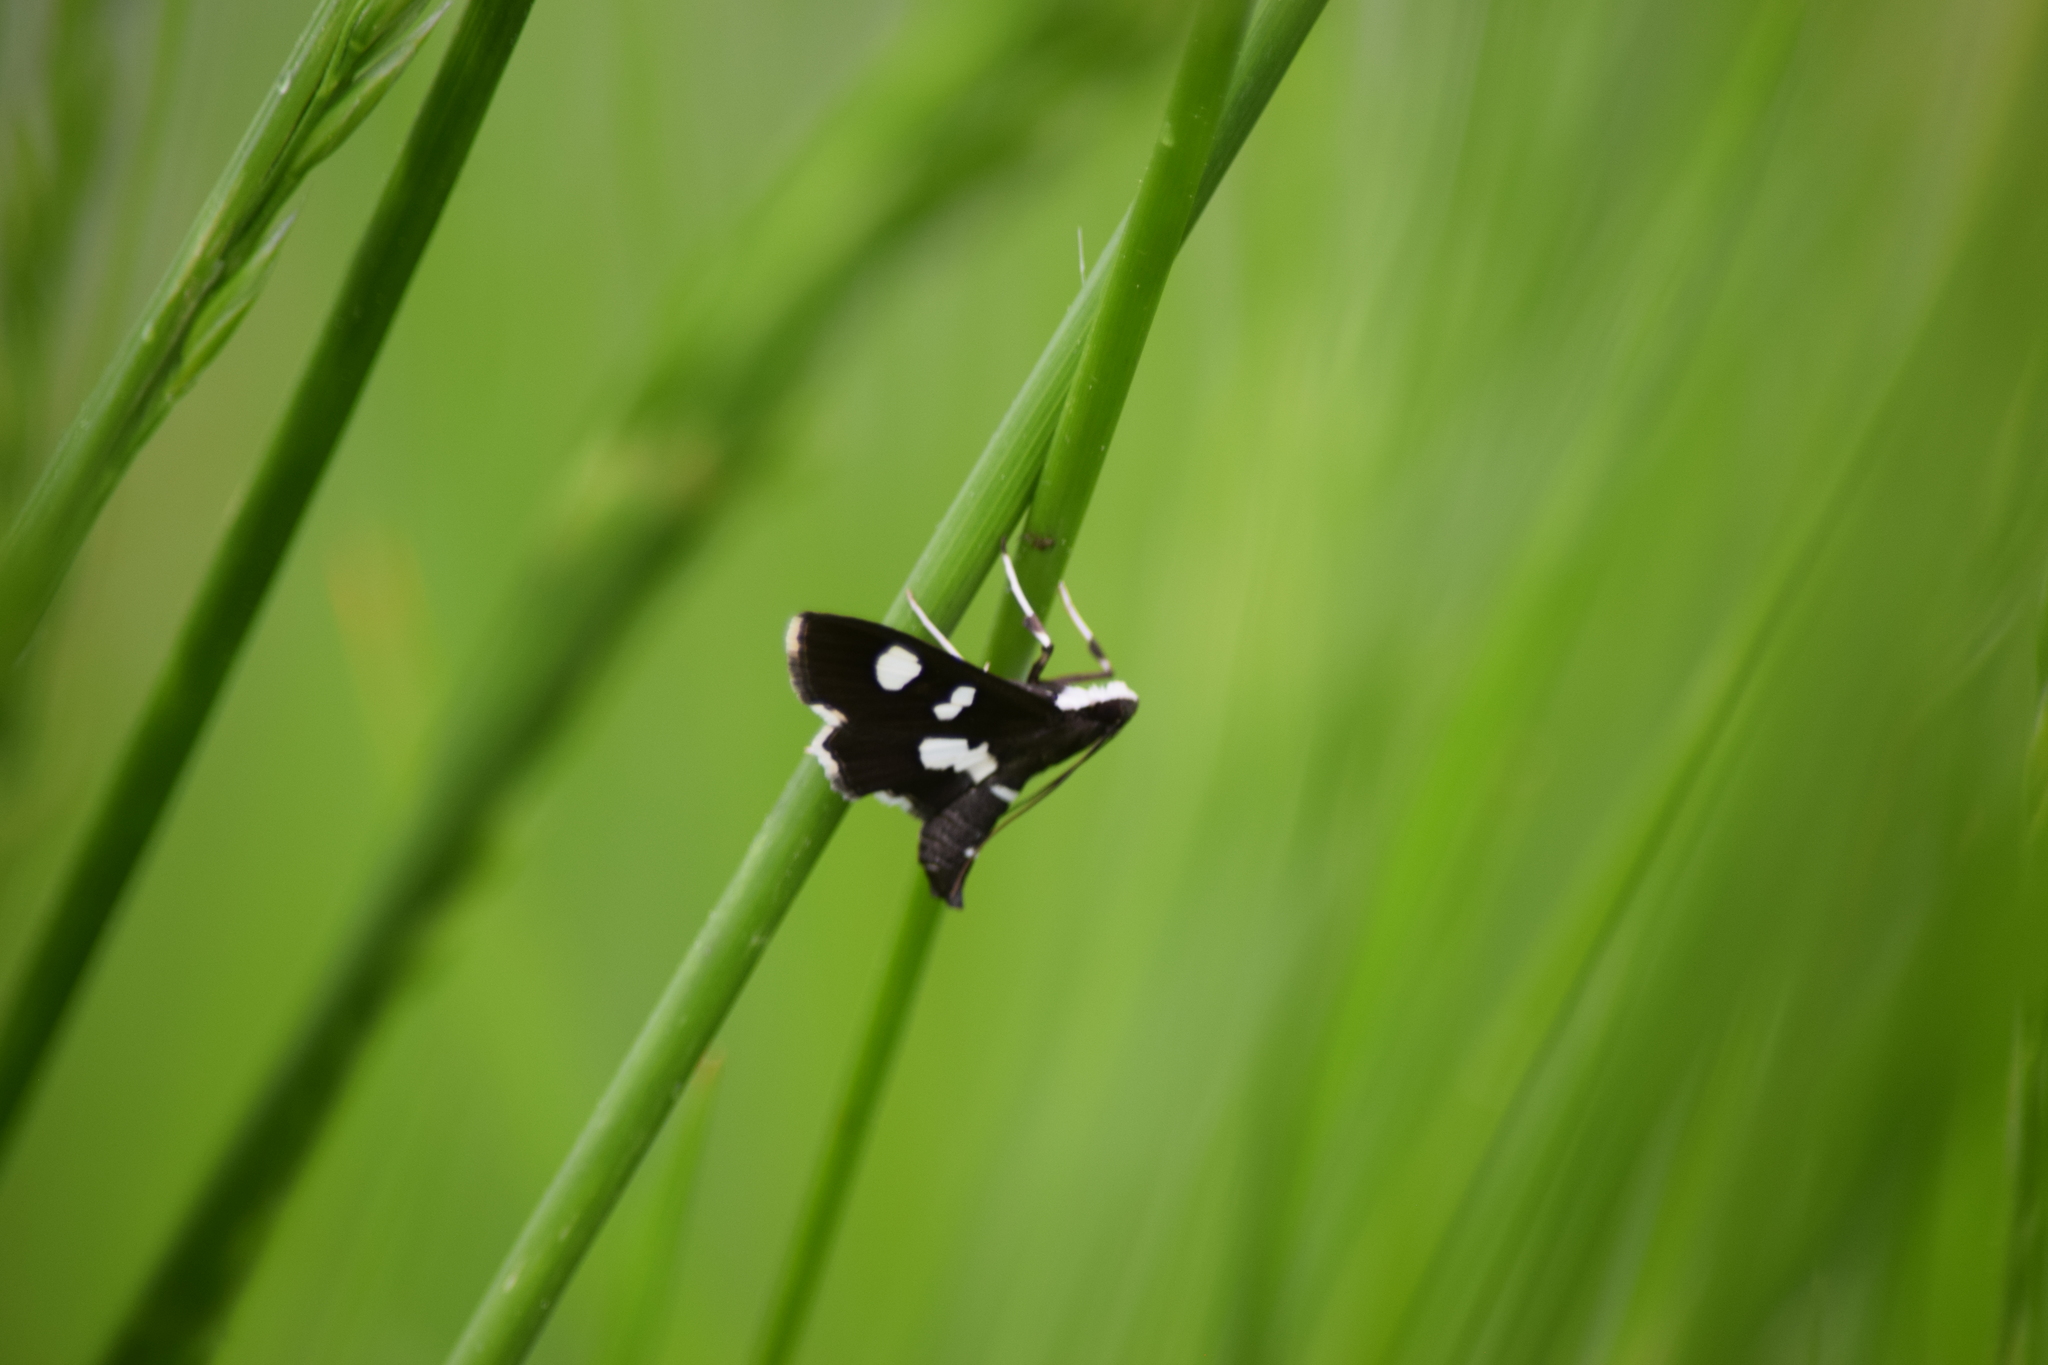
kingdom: Animalia
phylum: Arthropoda
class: Insecta
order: Lepidoptera
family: Crambidae
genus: Desmia
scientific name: Desmia
